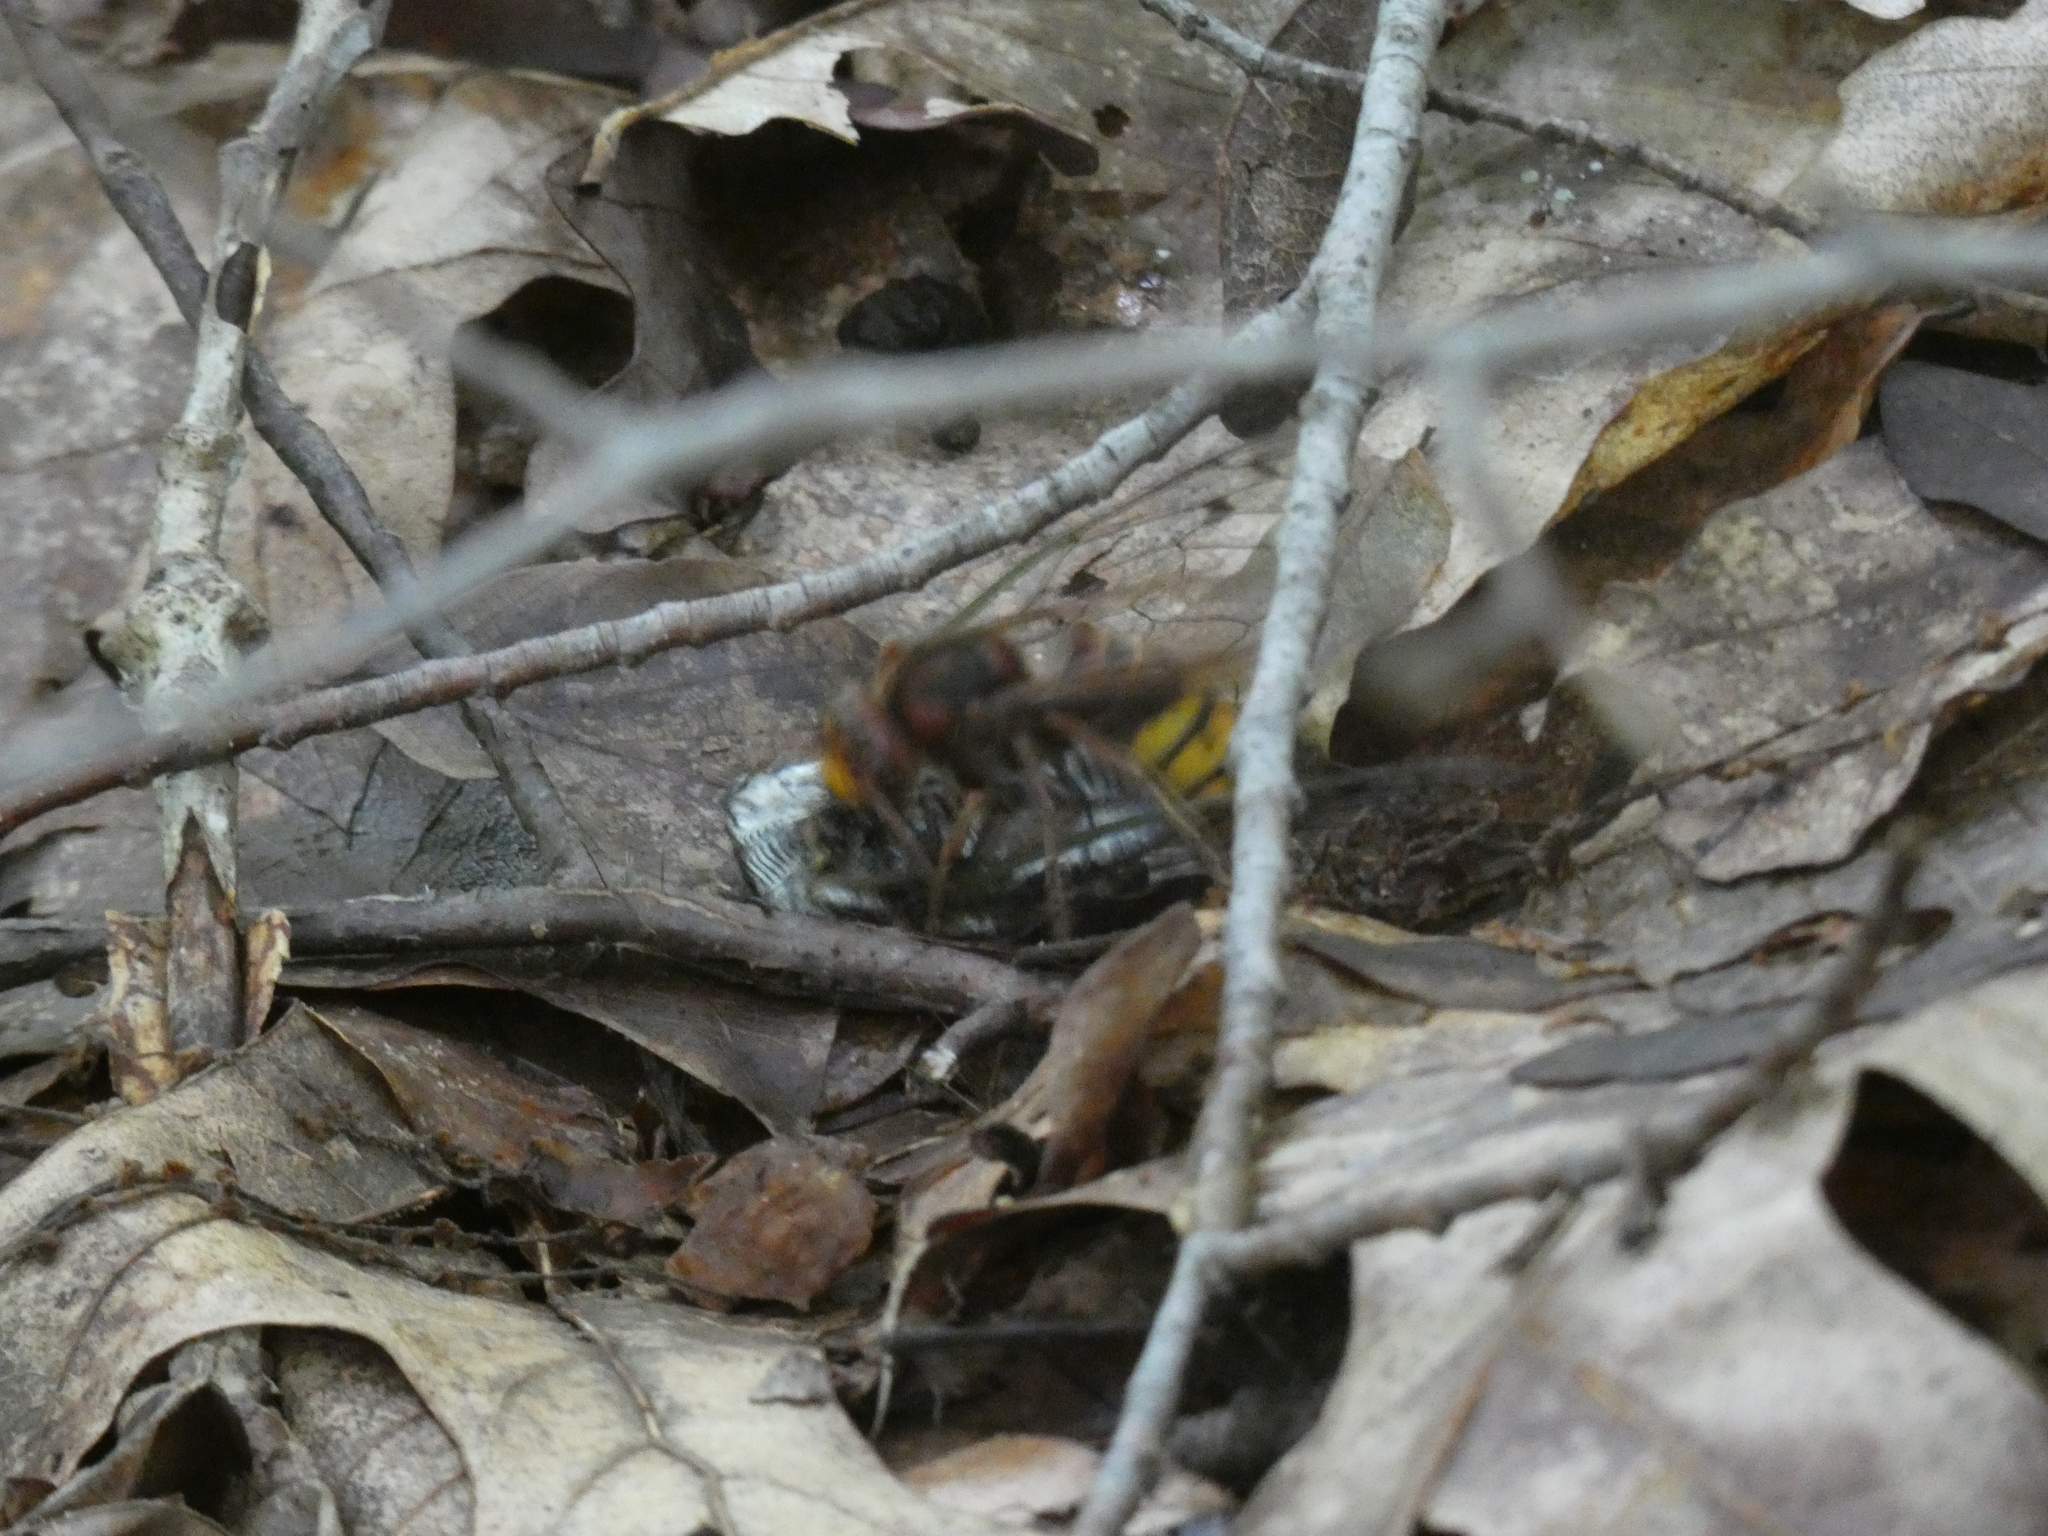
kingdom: Animalia
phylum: Arthropoda
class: Insecta
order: Hymenoptera
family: Vespidae
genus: Vespa
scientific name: Vespa crabro
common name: Hornet
